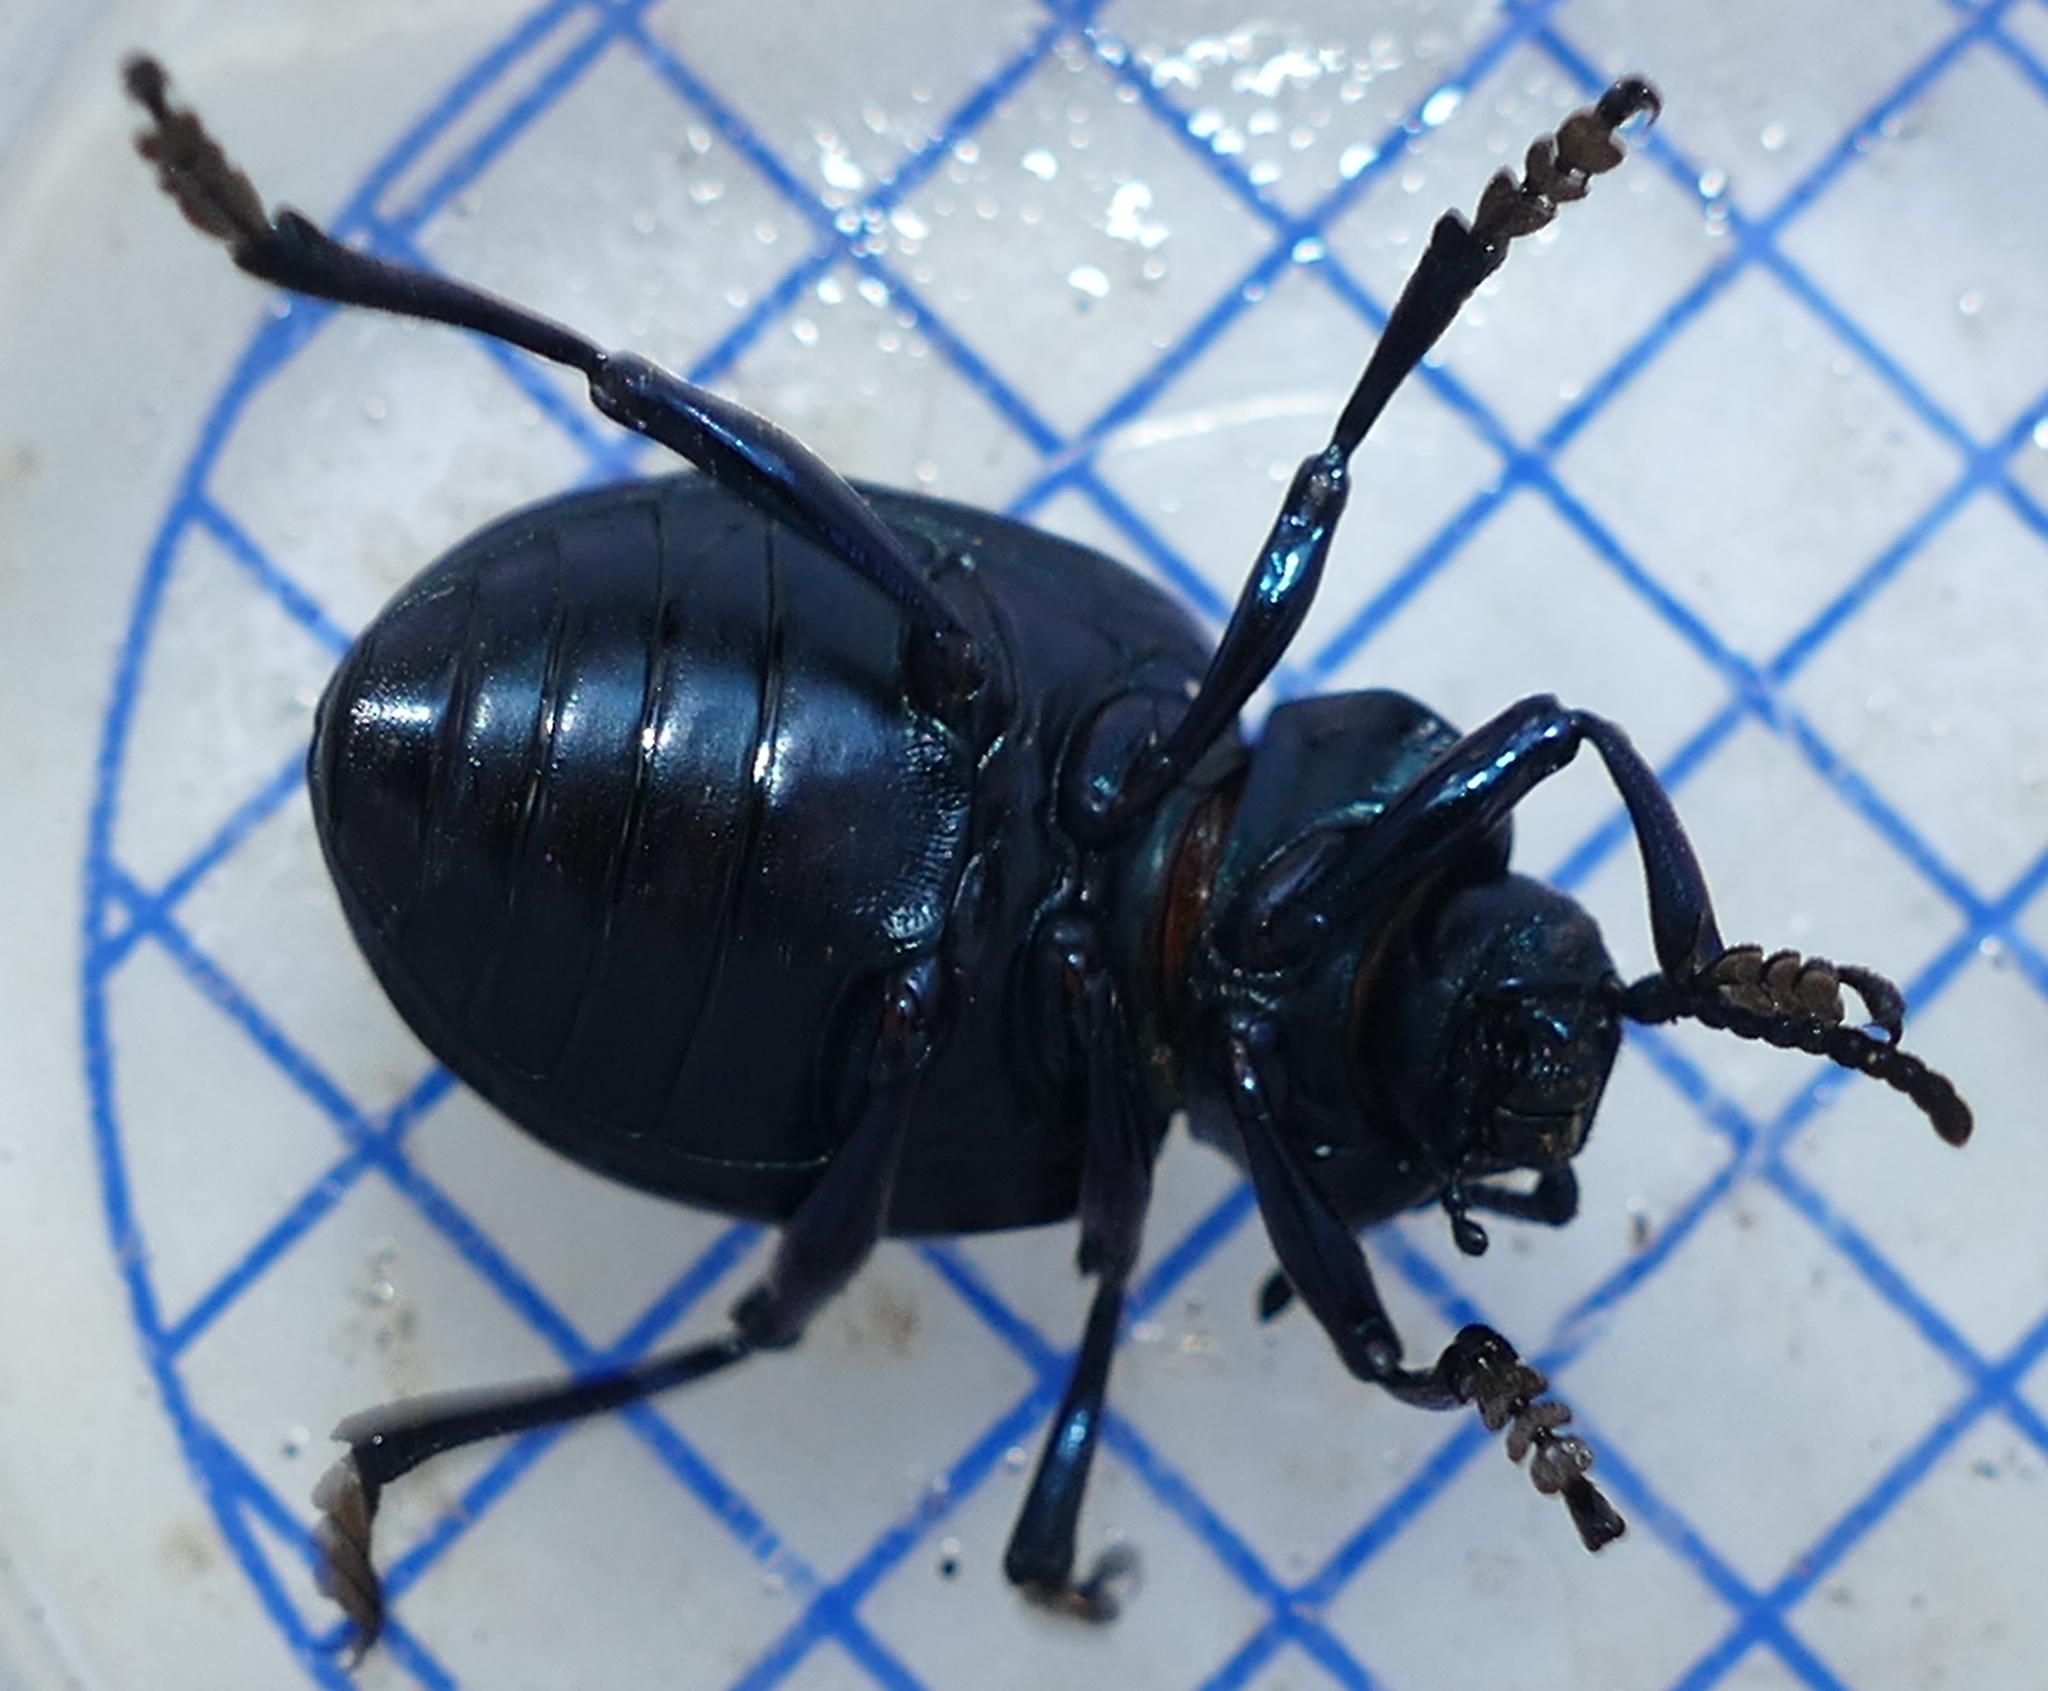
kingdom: Animalia
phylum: Arthropoda
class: Insecta
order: Coleoptera
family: Chrysomelidae
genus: Timarcha
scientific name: Timarcha tenebricosa
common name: Bloody-nosed beetle
